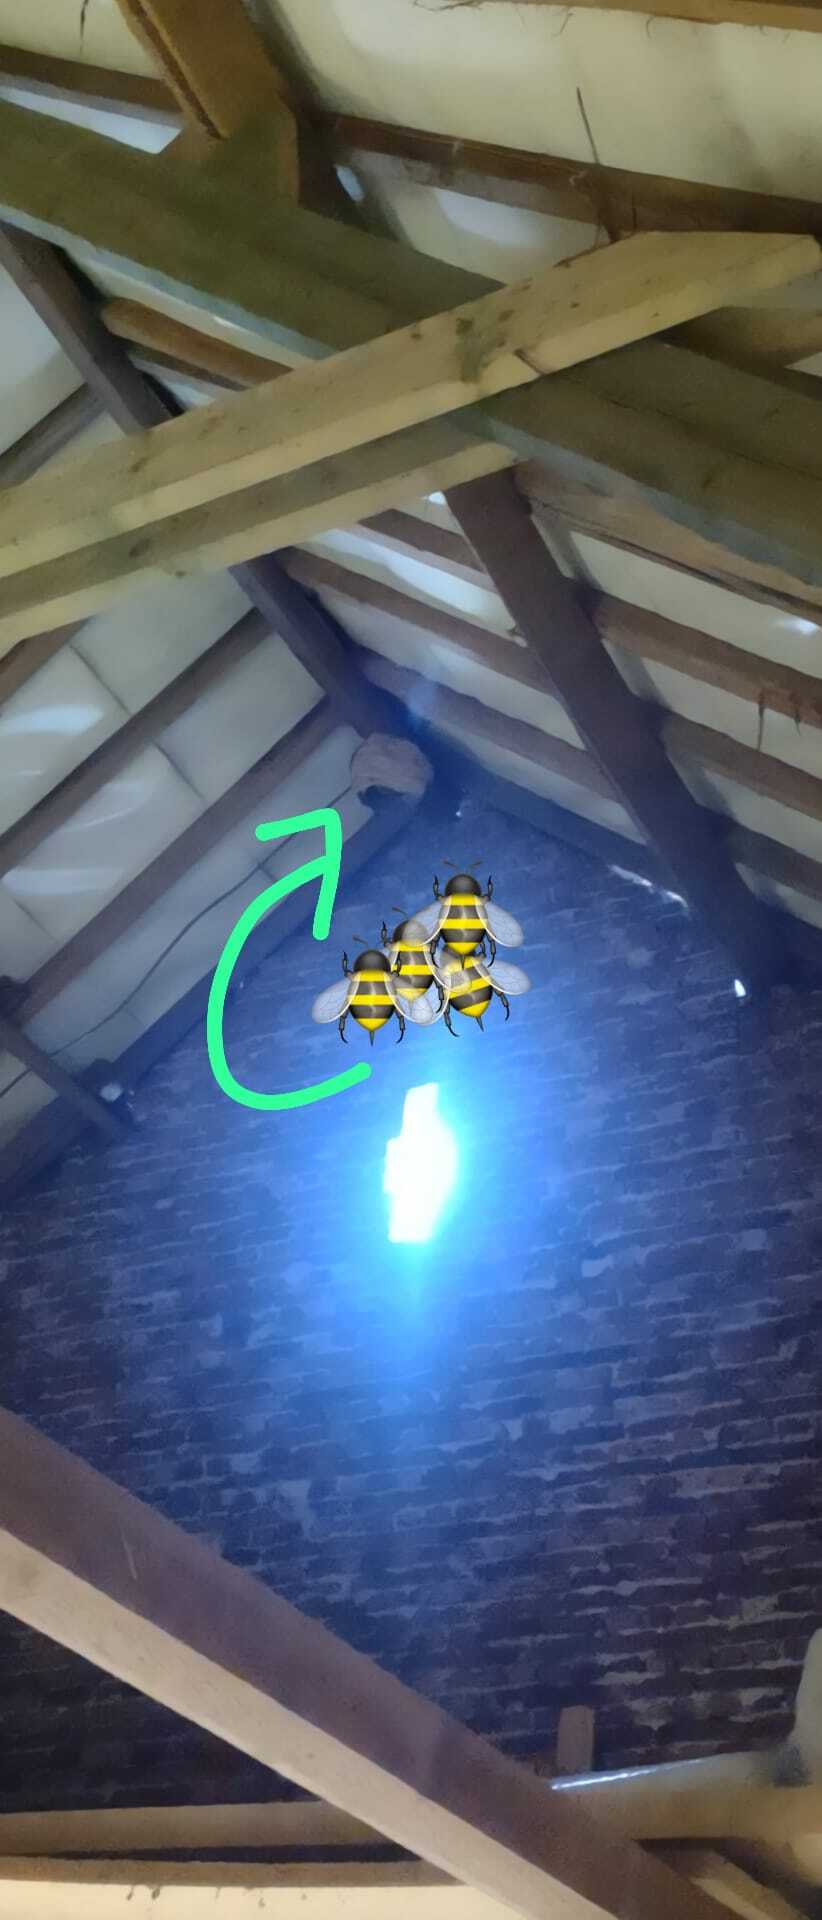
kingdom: Animalia
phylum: Arthropoda
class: Insecta
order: Hymenoptera
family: Vespidae
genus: Vespa
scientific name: Vespa crabro
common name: Hornet
